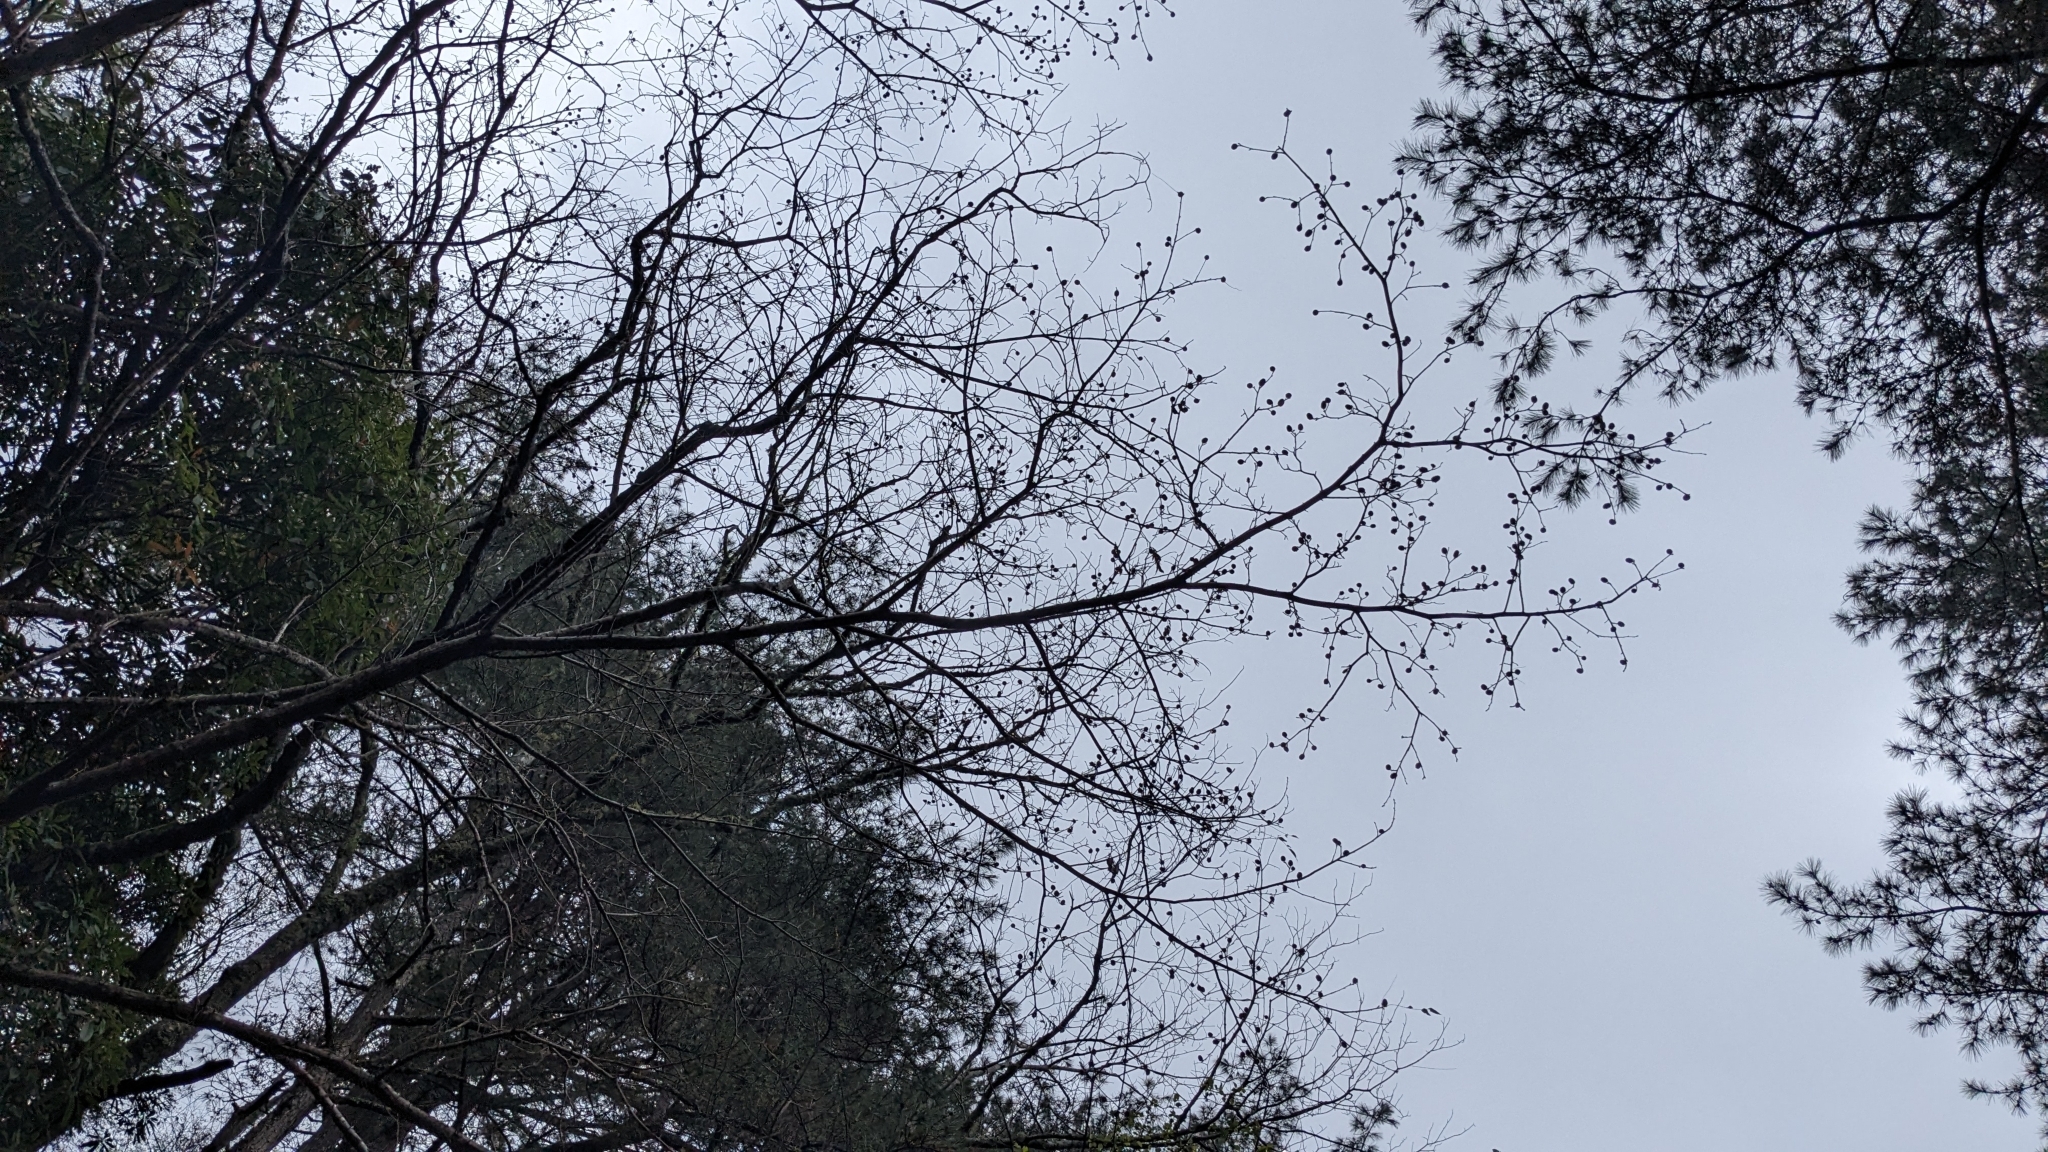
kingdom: Plantae
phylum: Tracheophyta
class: Magnoliopsida
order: Fagales
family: Juglandaceae
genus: Platycarya
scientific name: Platycarya strobilacea
